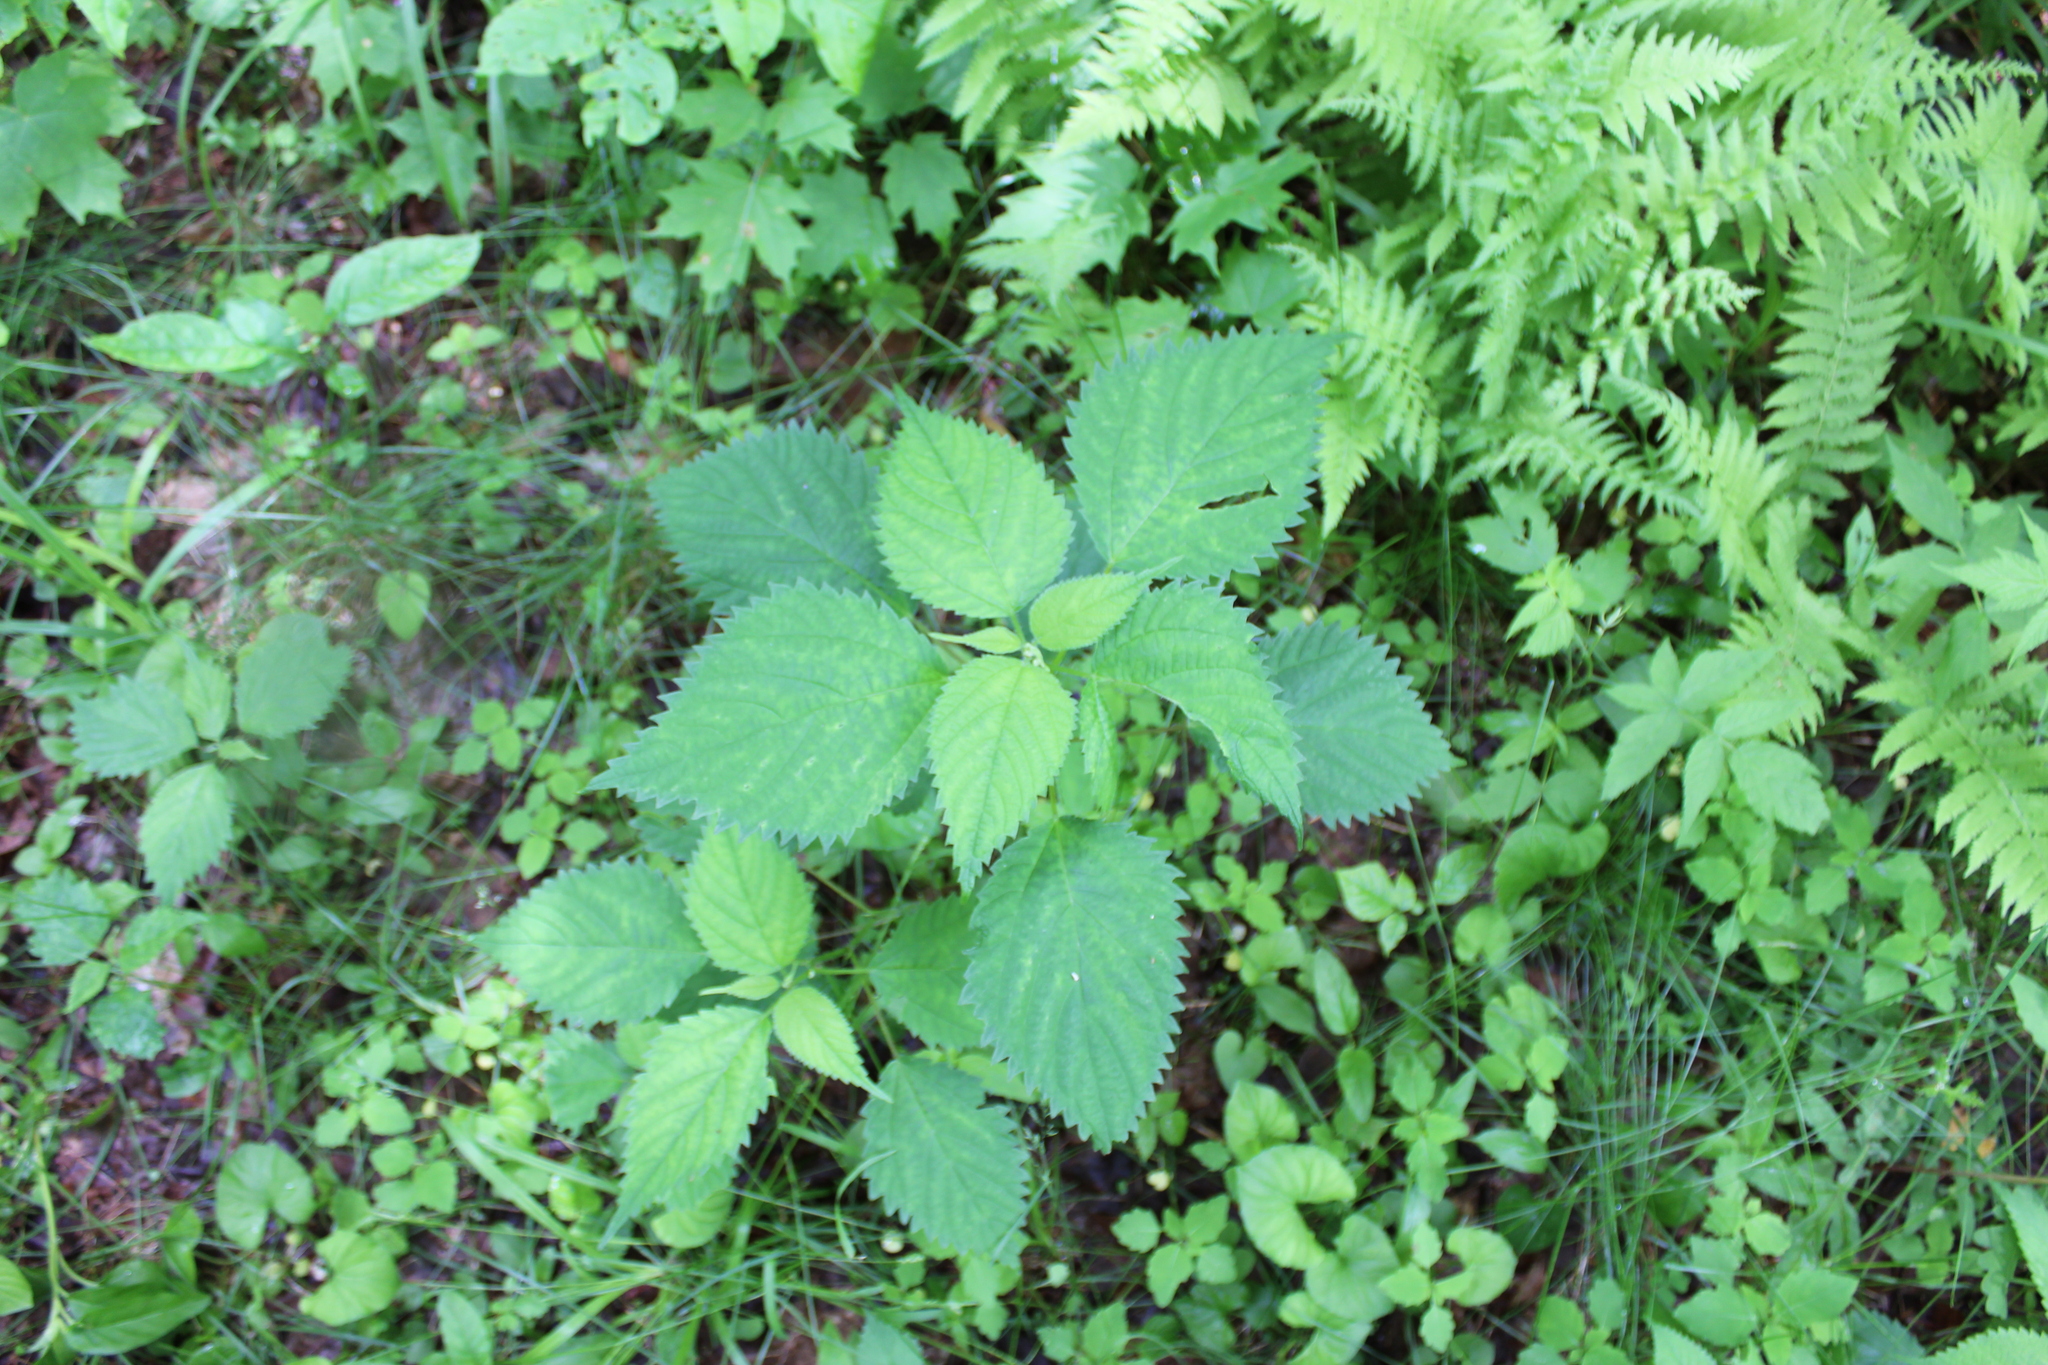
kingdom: Plantae
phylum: Tracheophyta
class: Magnoliopsida
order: Rosales
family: Urticaceae
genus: Laportea
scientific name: Laportea canadensis
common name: Canada nettle
